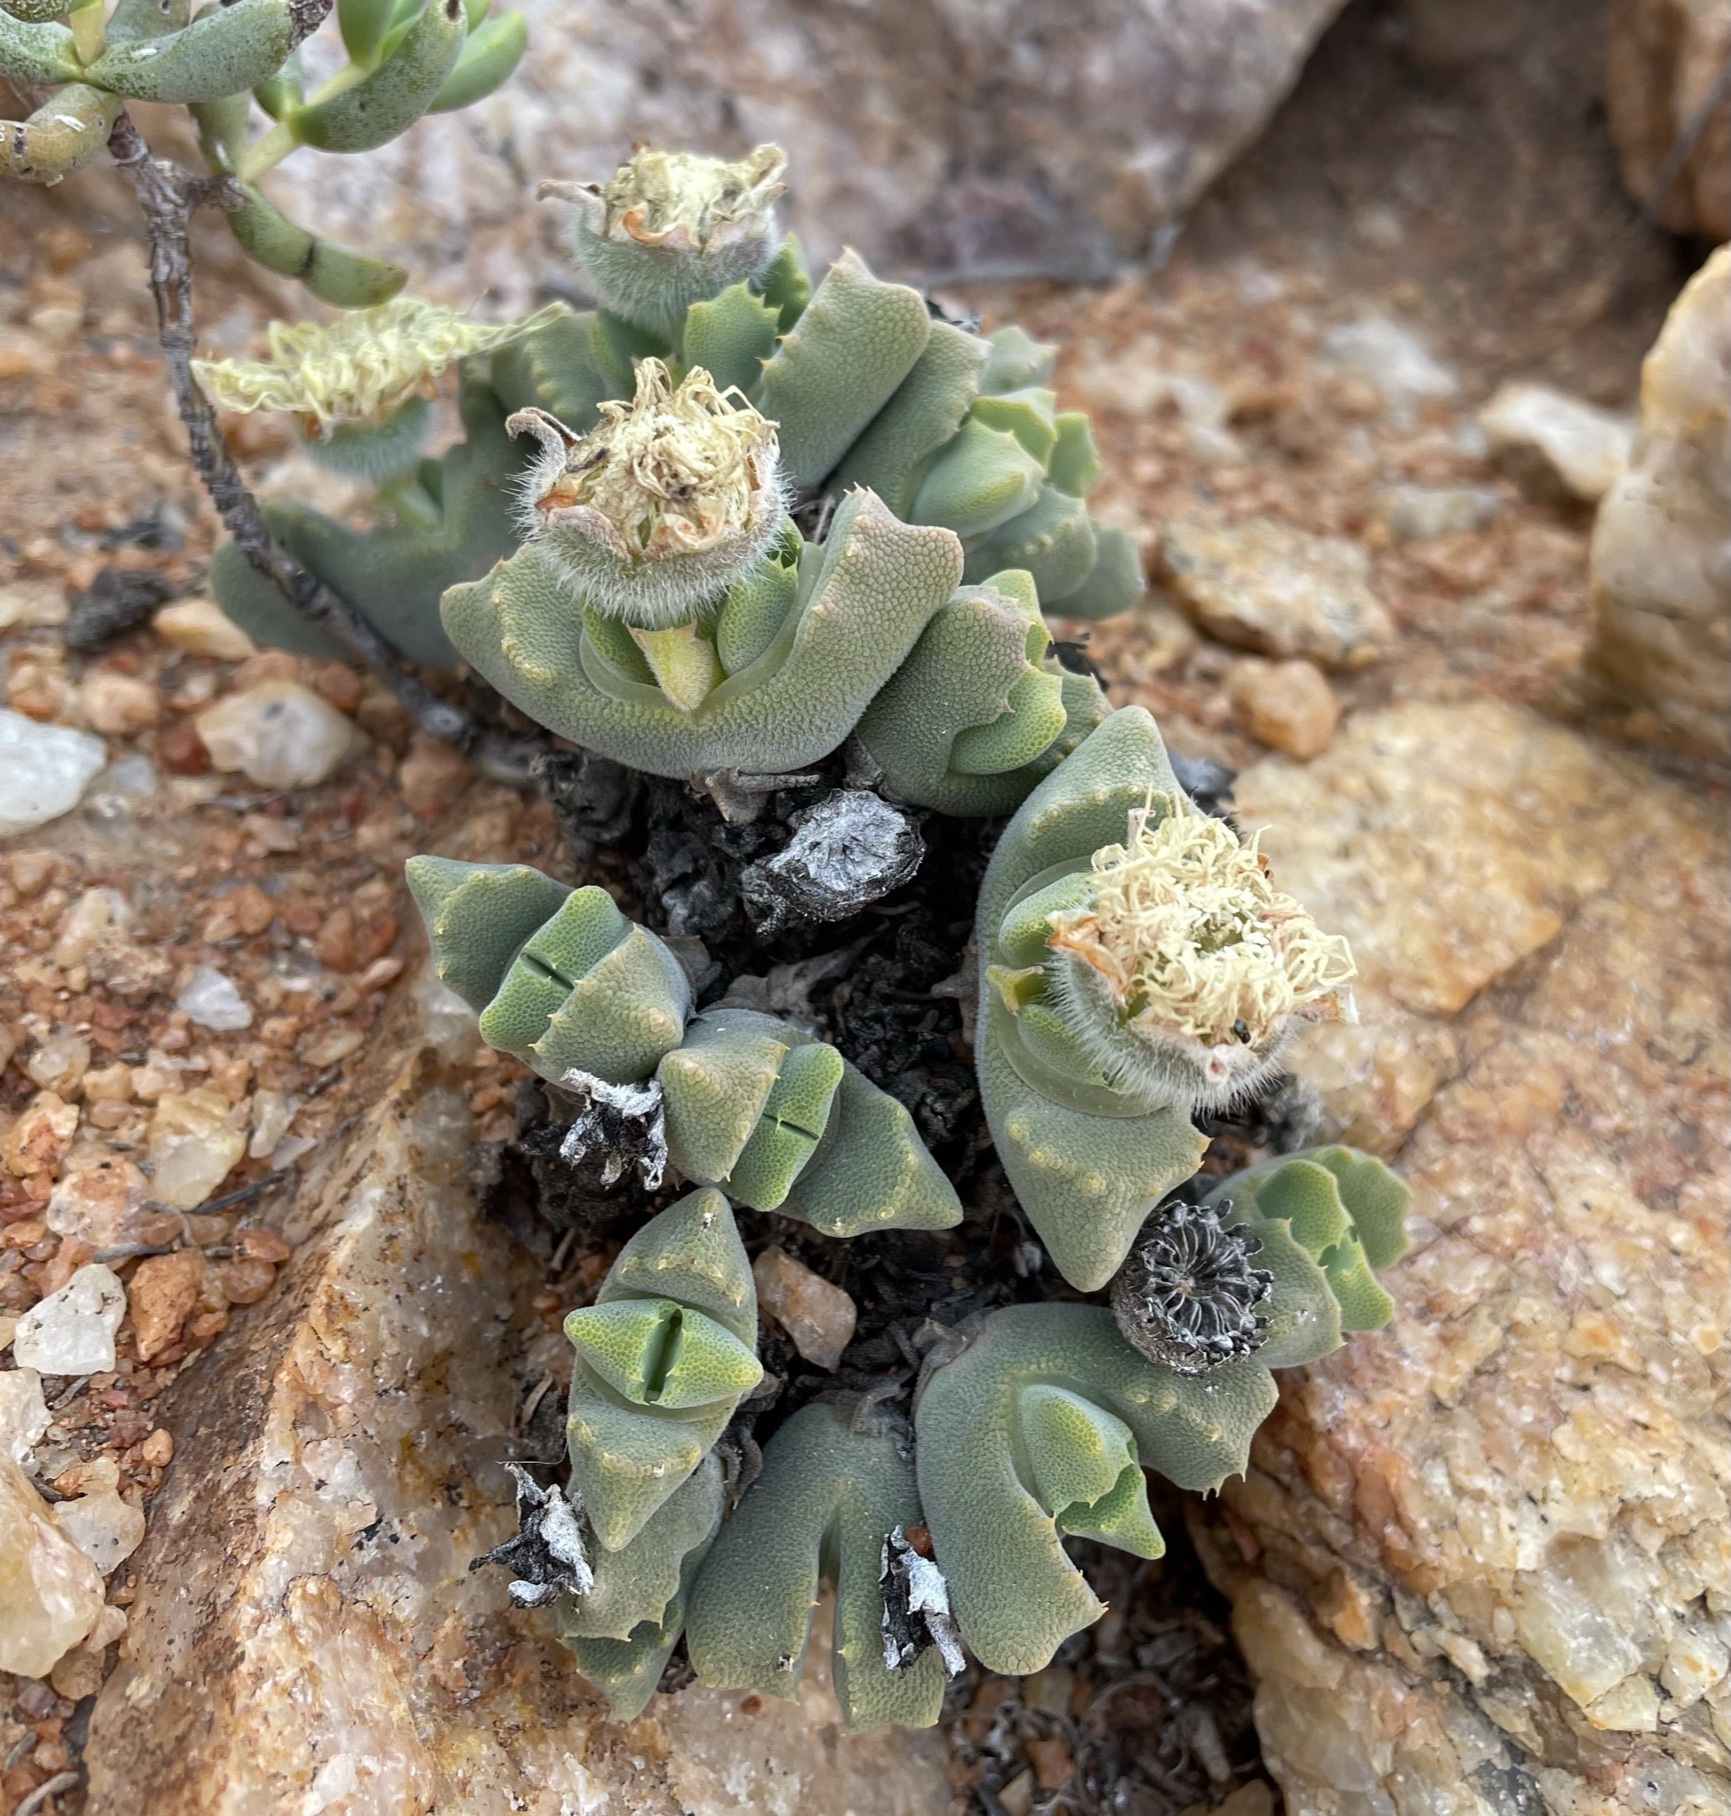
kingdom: Plantae
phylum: Tracheophyta
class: Magnoliopsida
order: Caryophyllales
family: Aizoaceae
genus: Cheiridopsis
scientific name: Cheiridopsis nana
